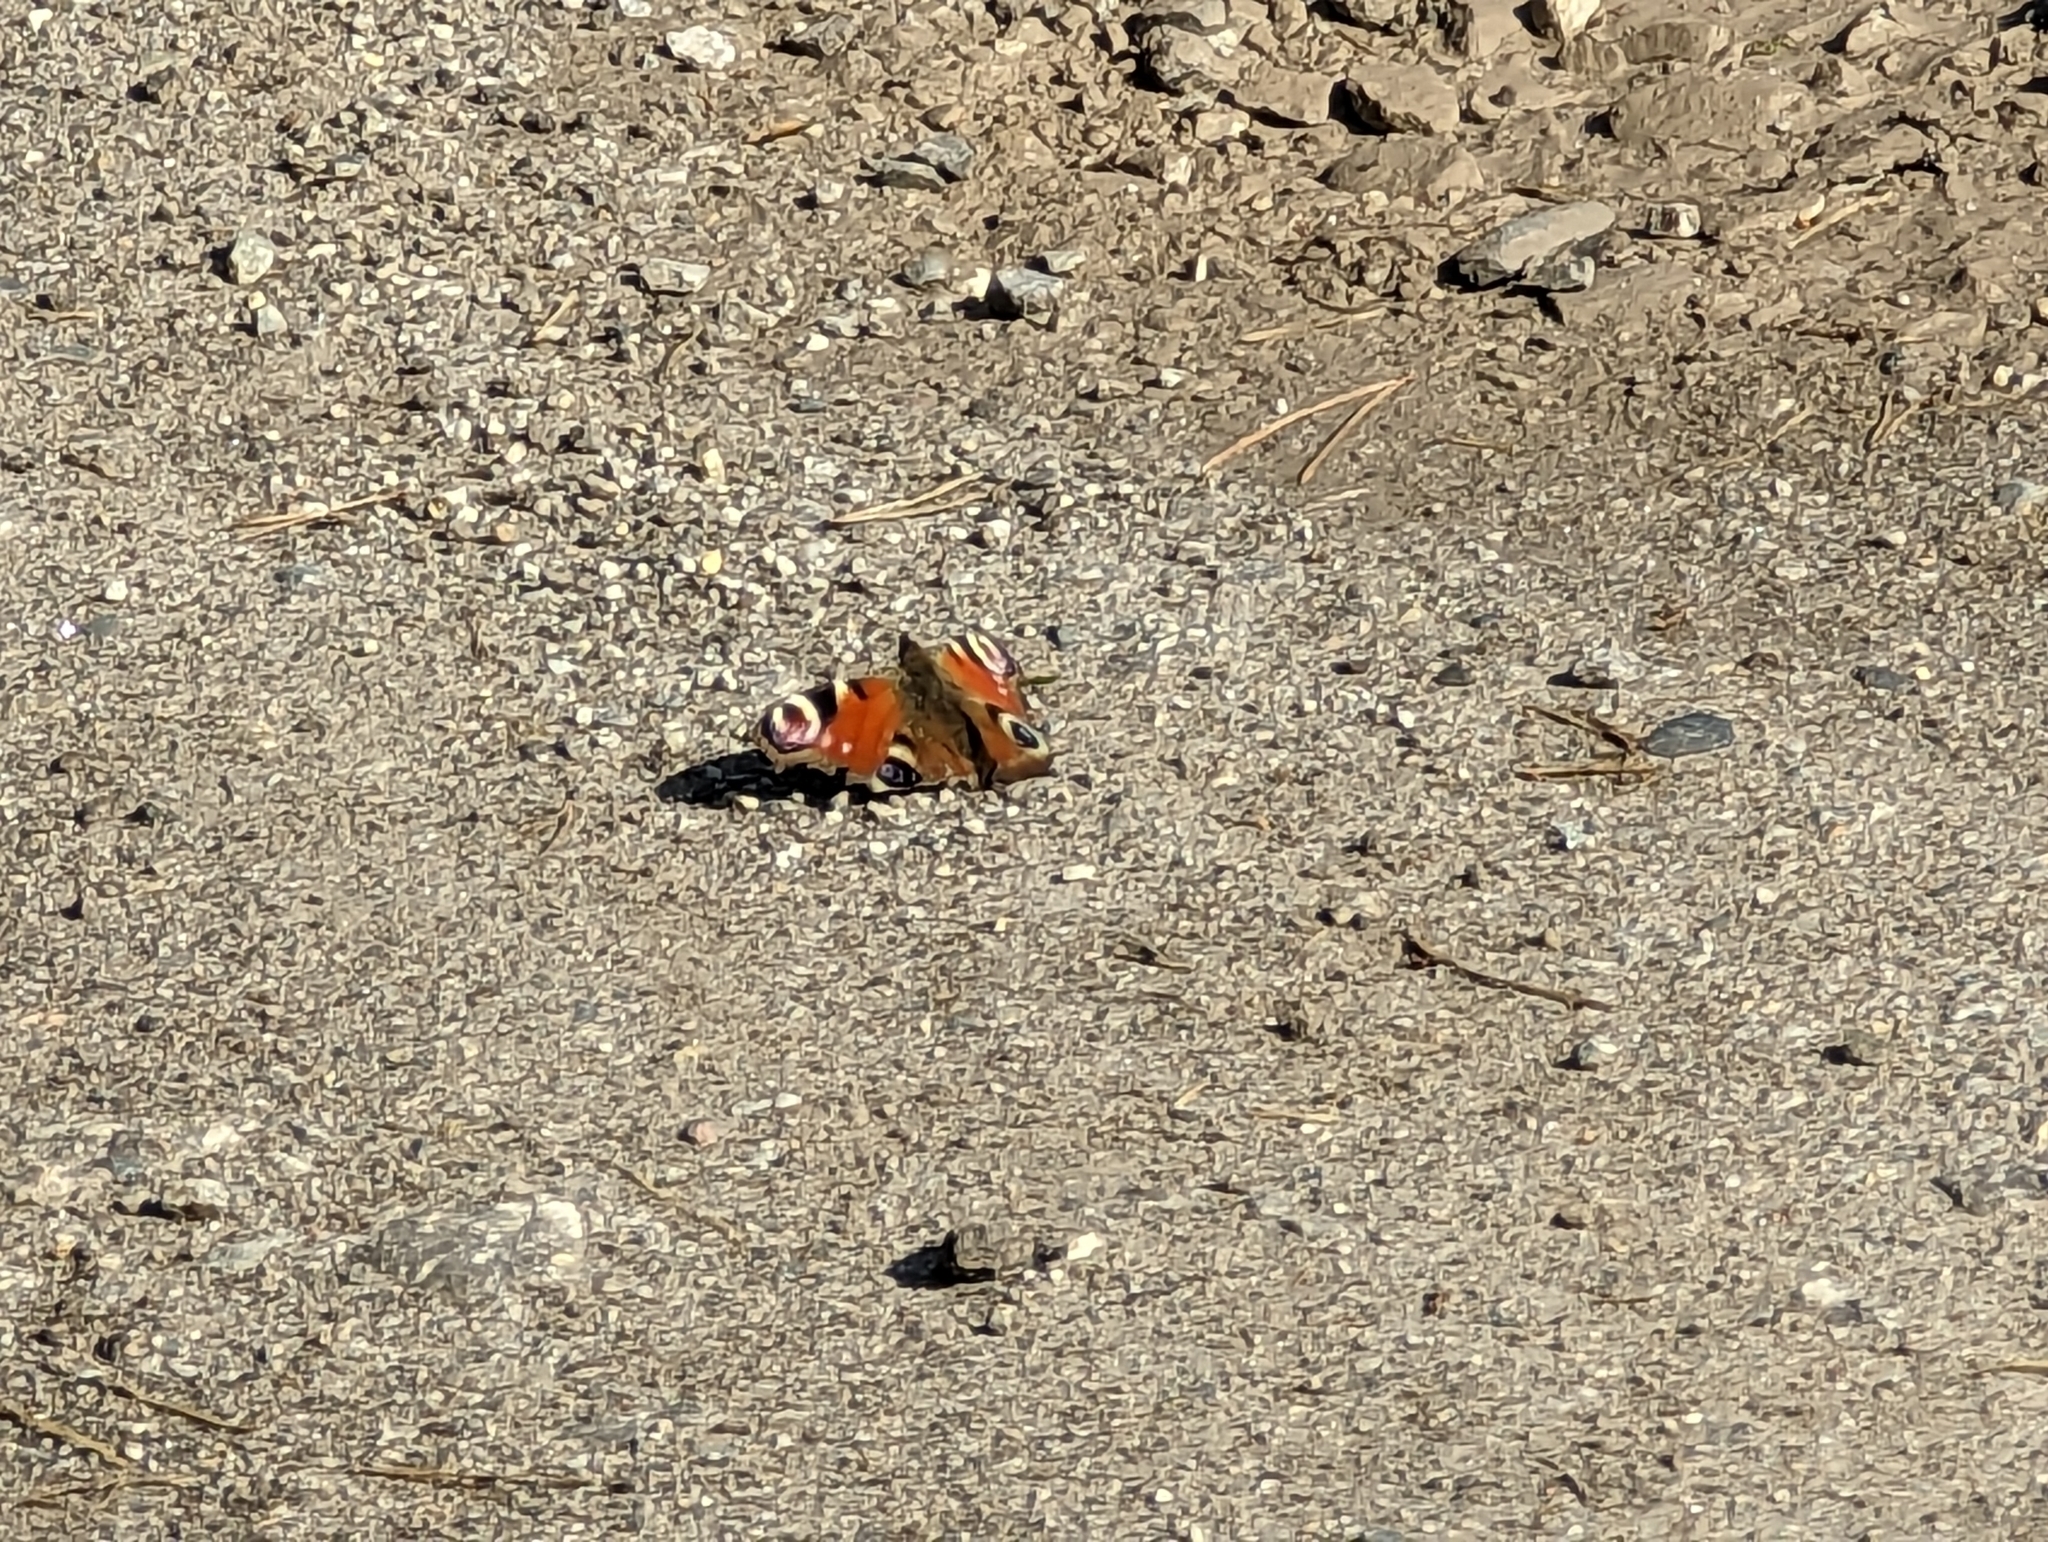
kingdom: Animalia
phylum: Arthropoda
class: Insecta
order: Lepidoptera
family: Nymphalidae
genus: Aglais
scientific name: Aglais io
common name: Peacock
